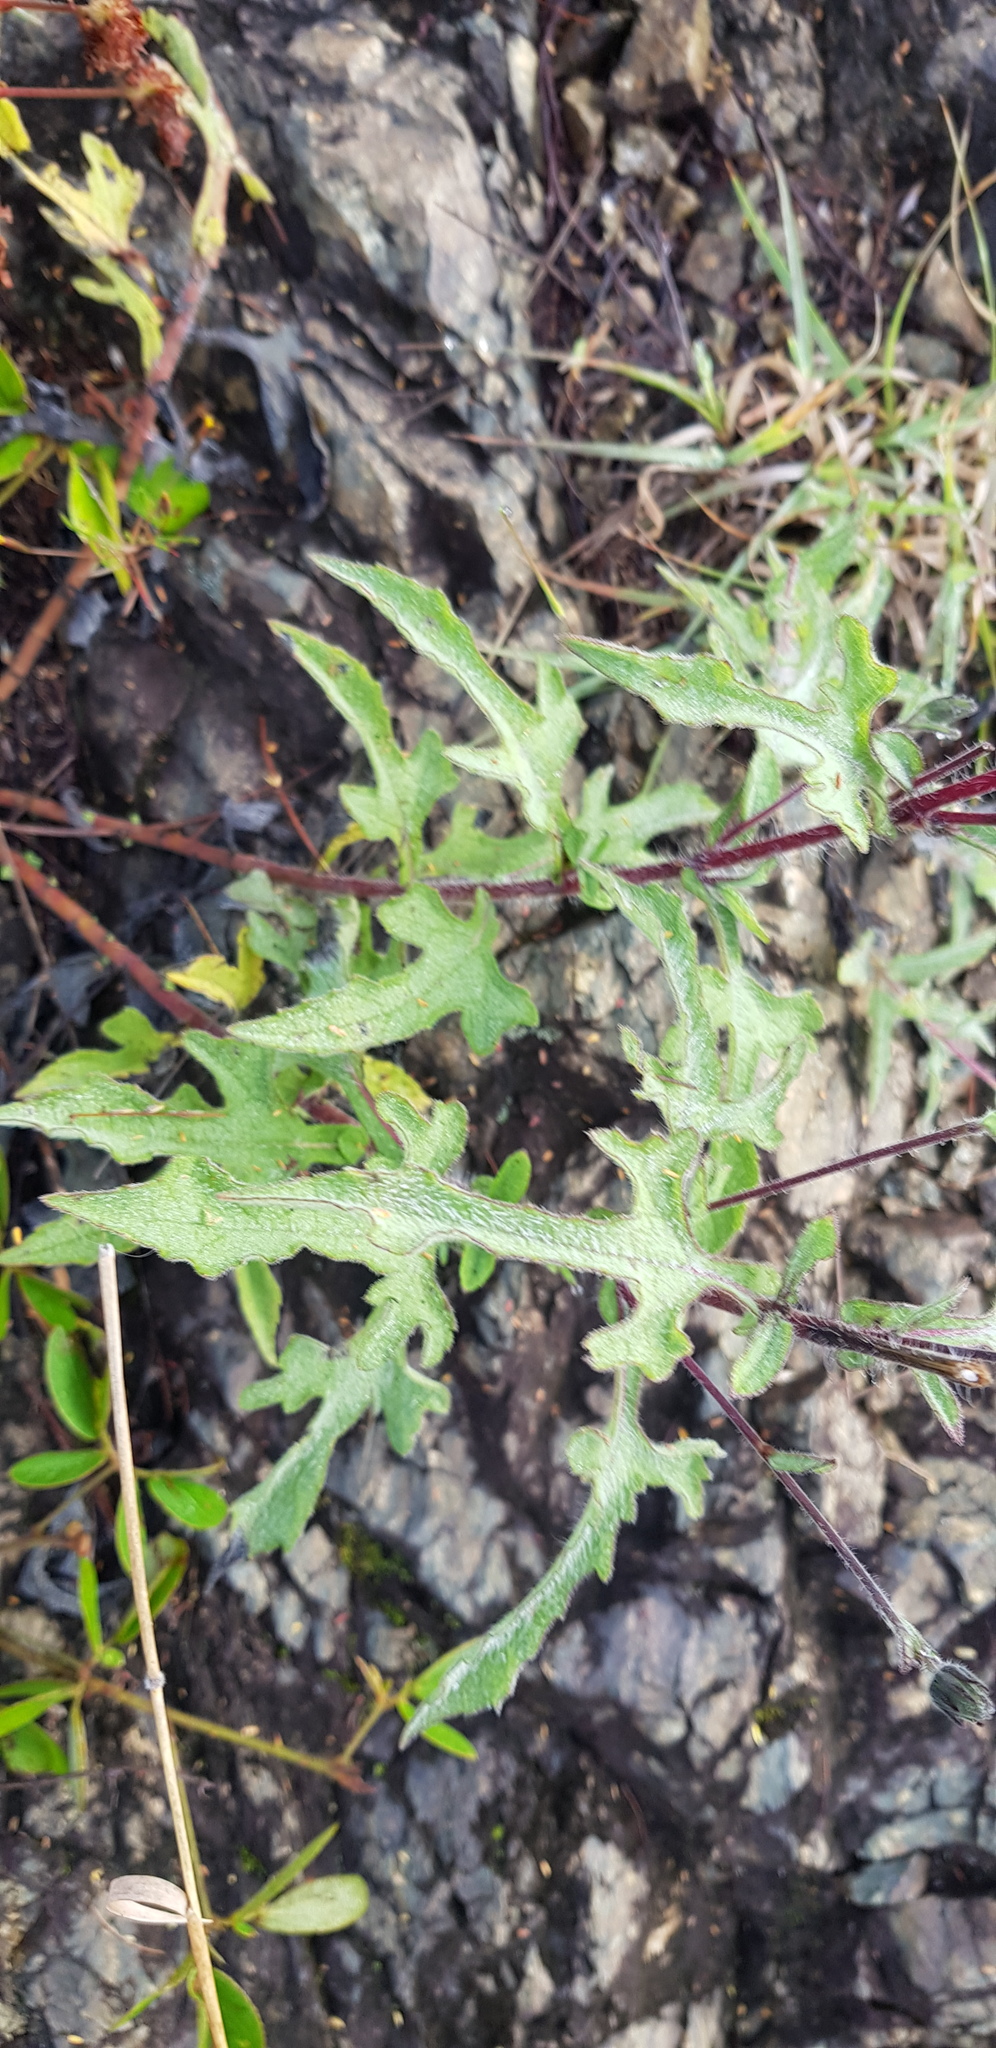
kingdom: Plantae
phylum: Tracheophyta
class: Magnoliopsida
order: Asterales
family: Asteraceae
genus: Simsia
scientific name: Simsia sanguinea
